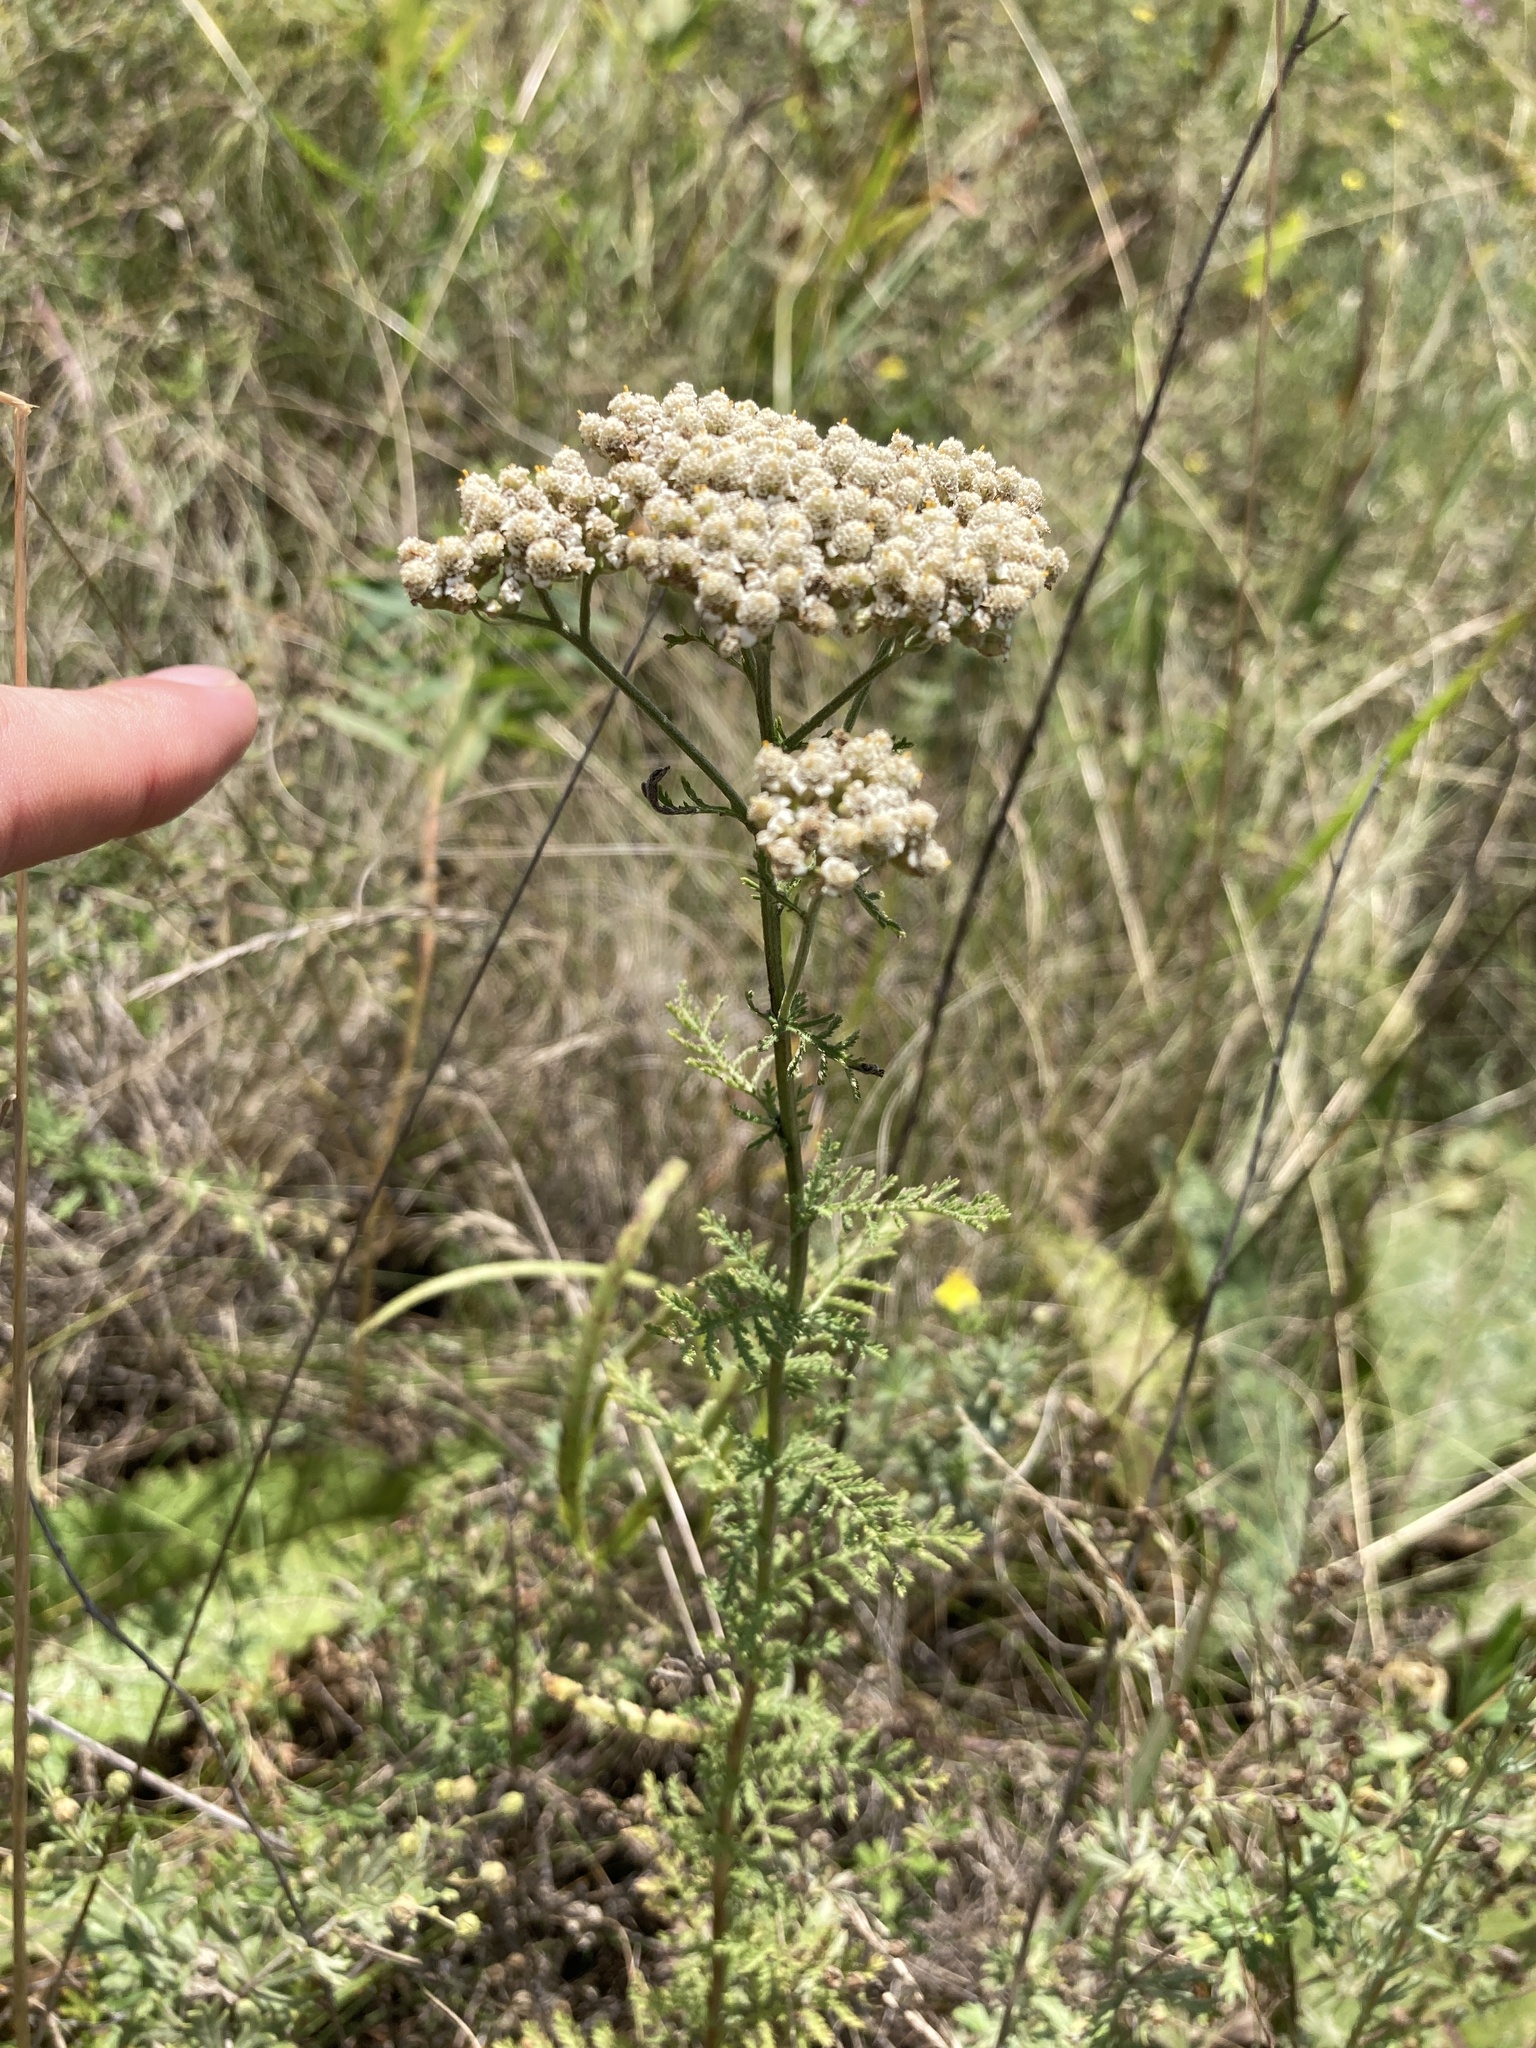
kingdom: Plantae
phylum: Tracheophyta
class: Magnoliopsida
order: Asterales
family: Asteraceae
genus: Achillea
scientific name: Achillea nobilis
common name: Noble yarrow
